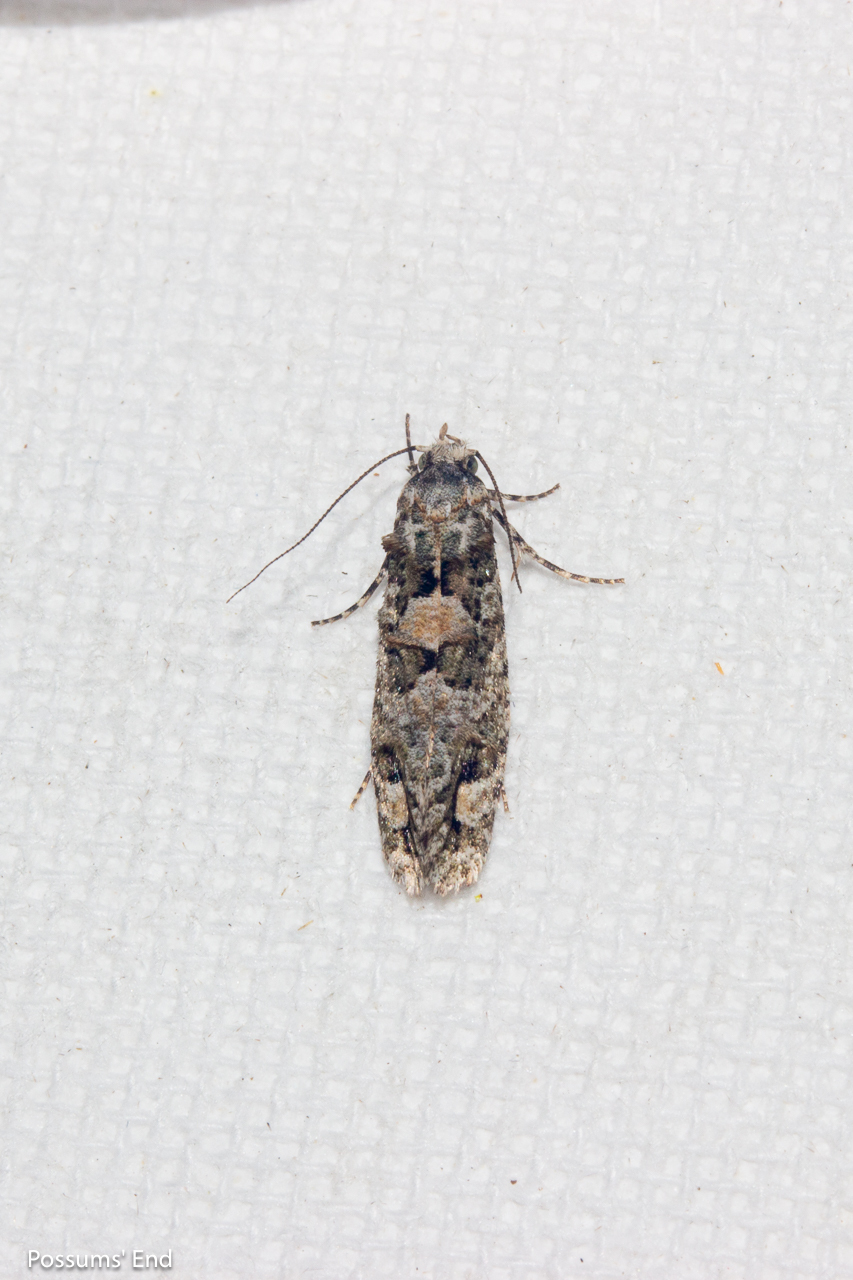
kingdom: Animalia
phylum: Arthropoda
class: Insecta
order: Lepidoptera
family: Tineidae
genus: Lysiphragma
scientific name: Lysiphragma howesii
